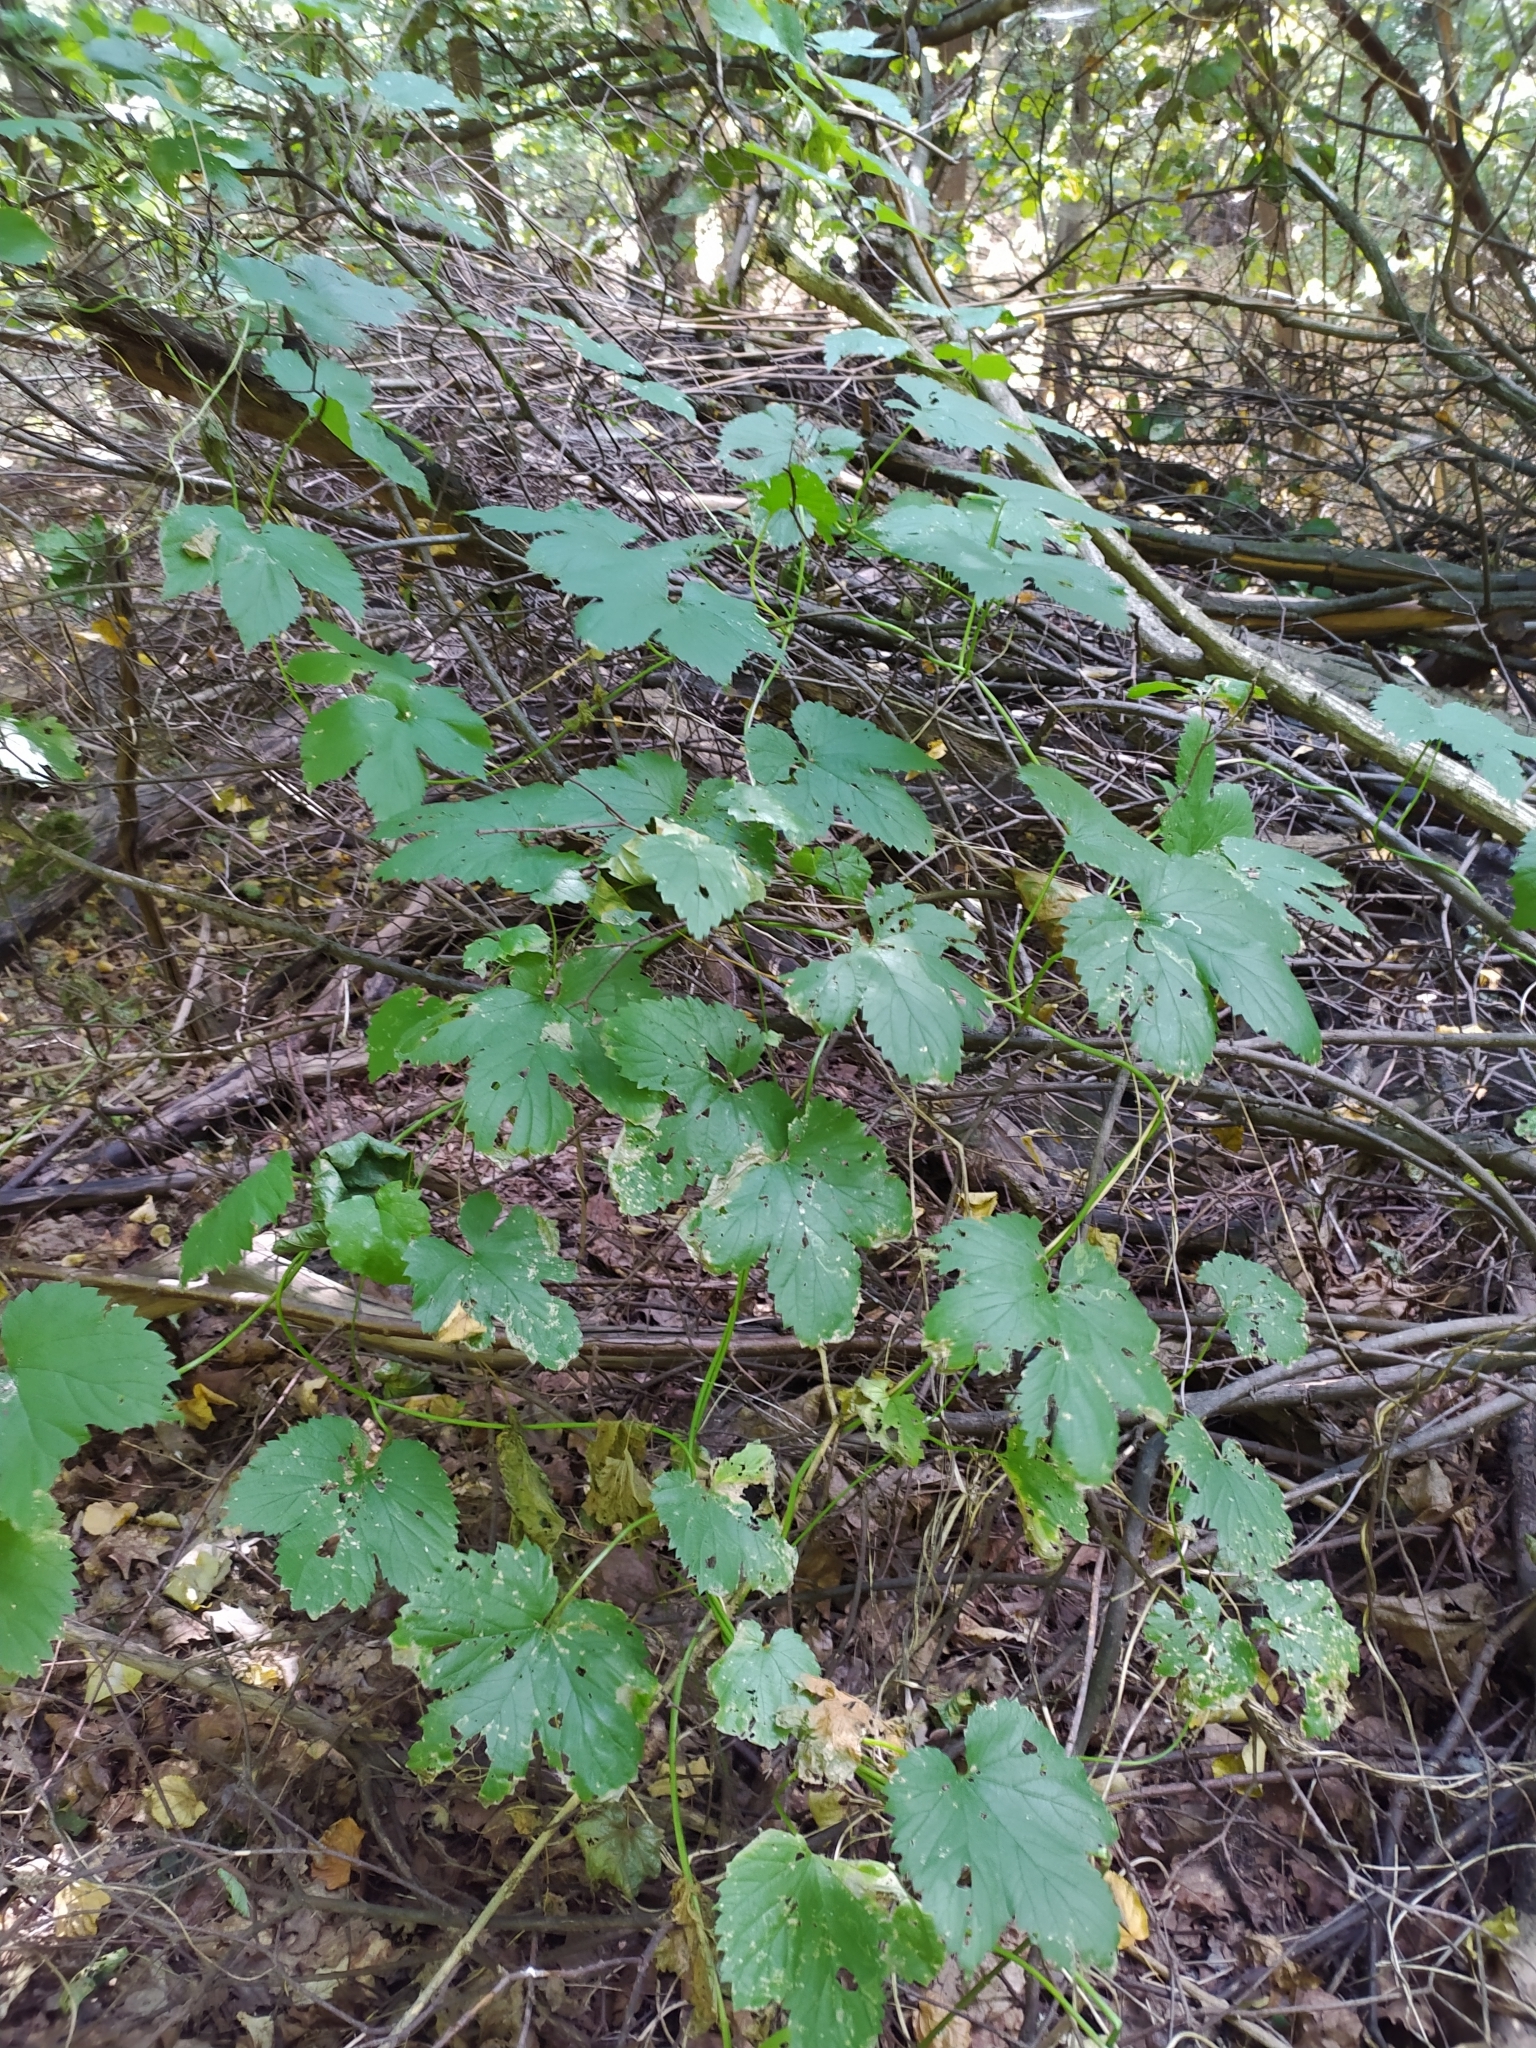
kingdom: Plantae
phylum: Tracheophyta
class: Magnoliopsida
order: Rosales
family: Cannabaceae
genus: Humulus
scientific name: Humulus lupulus
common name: Hop
